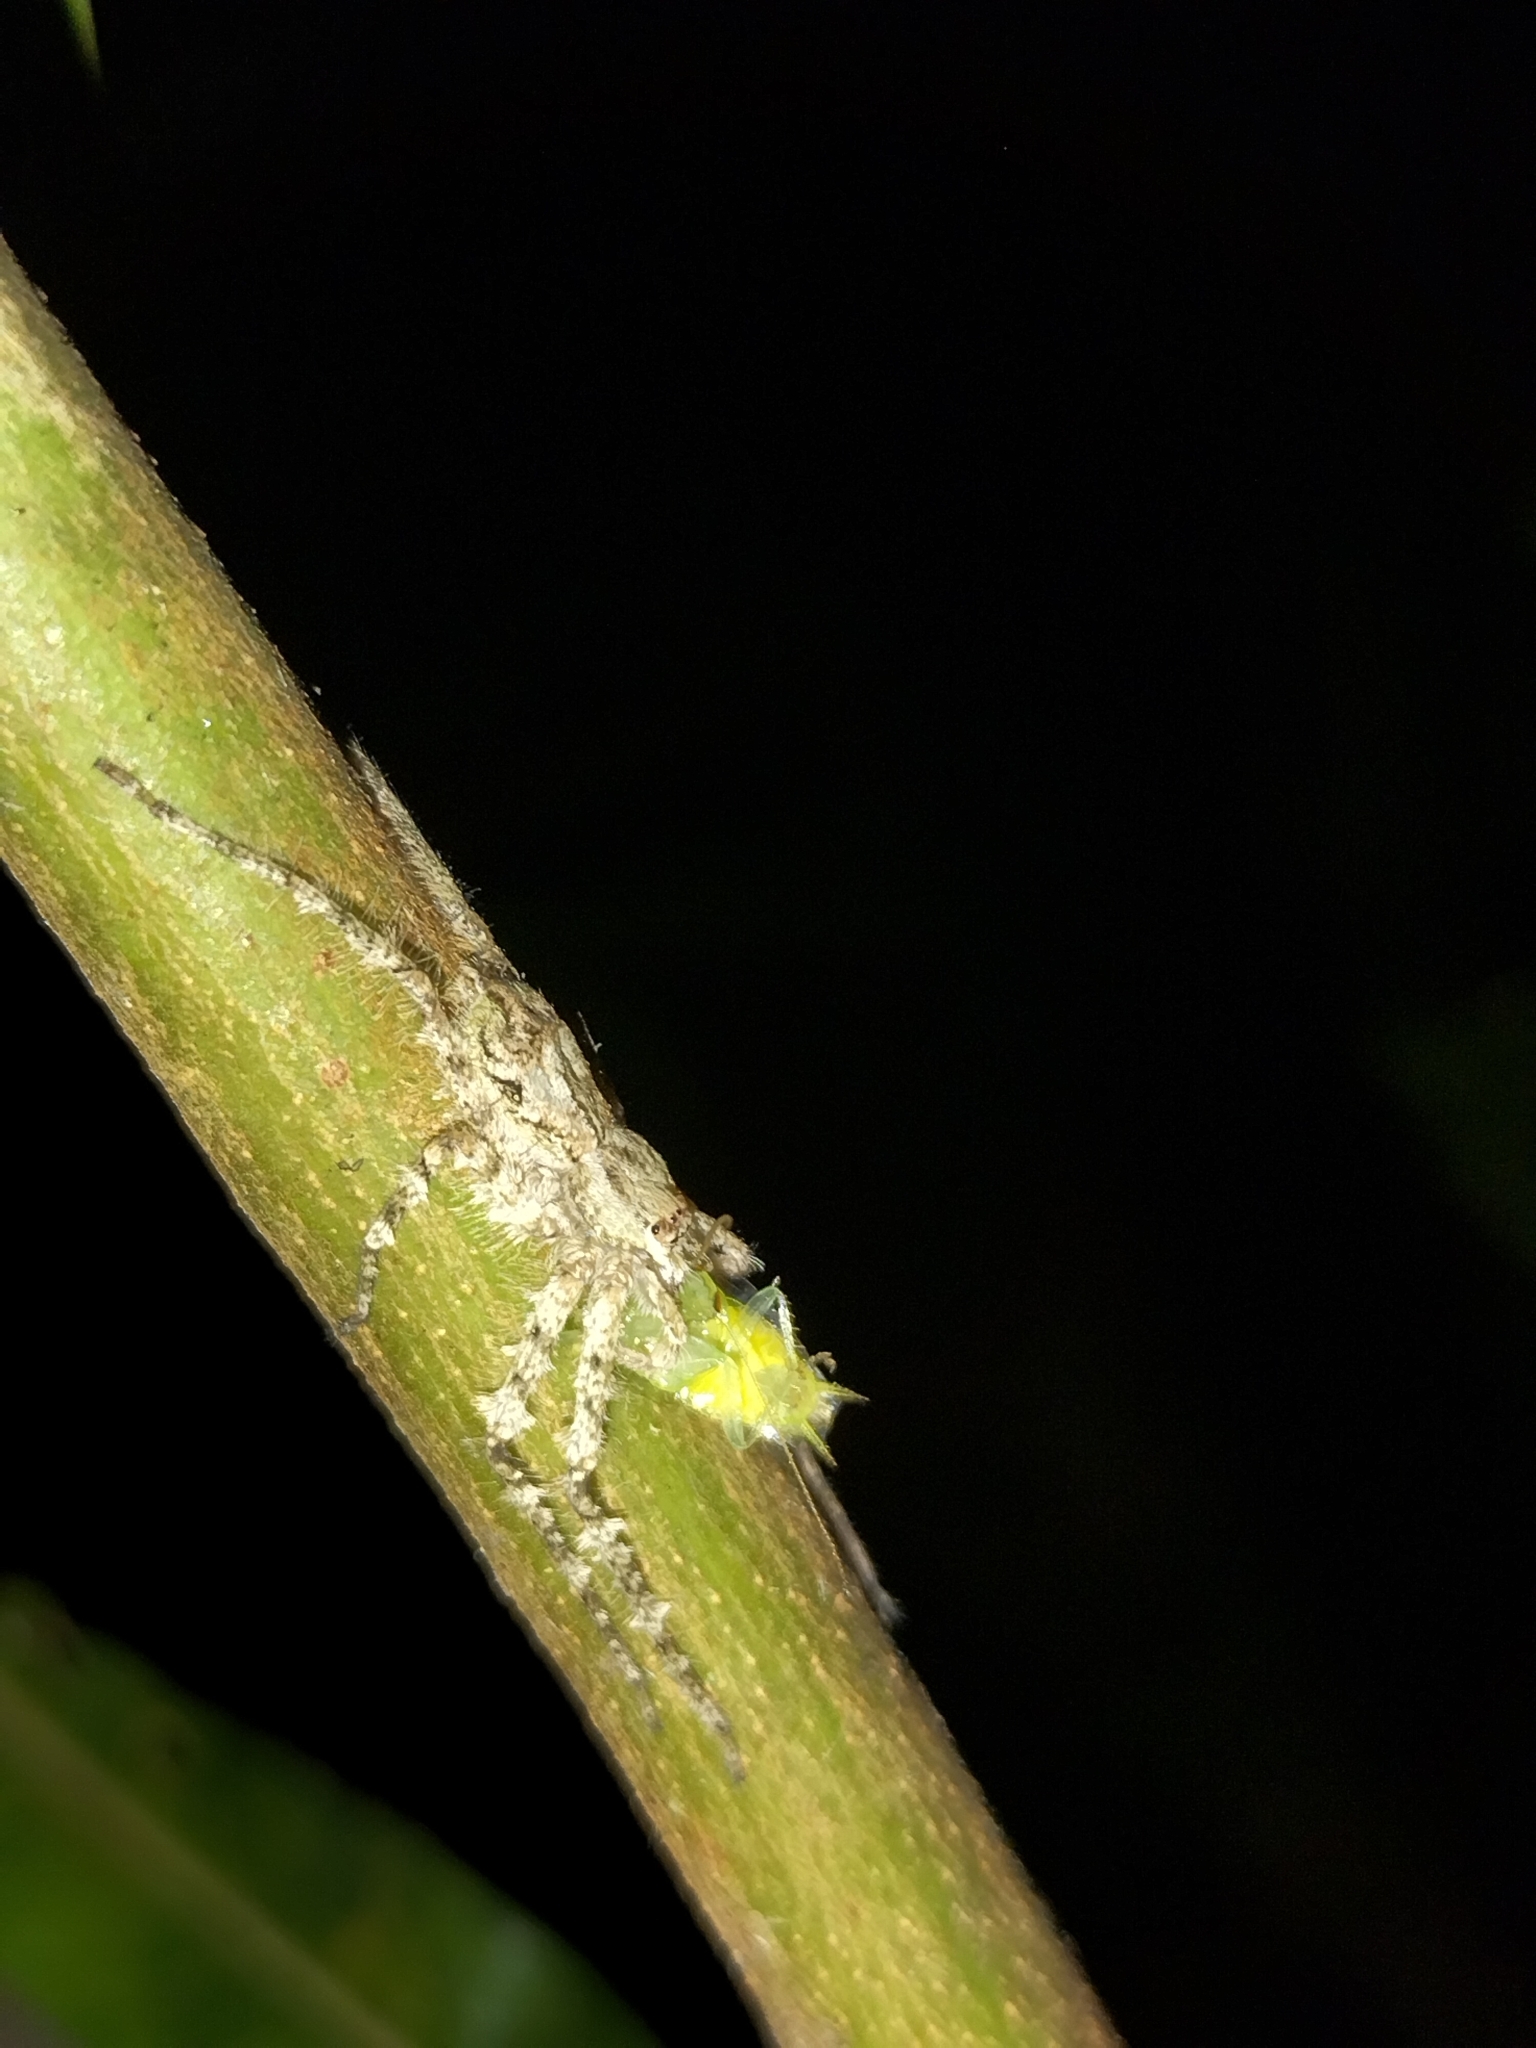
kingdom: Animalia
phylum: Arthropoda
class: Arachnida
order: Araneae
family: Sparassidae
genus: Pandercetes
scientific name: Pandercetes gracilis
